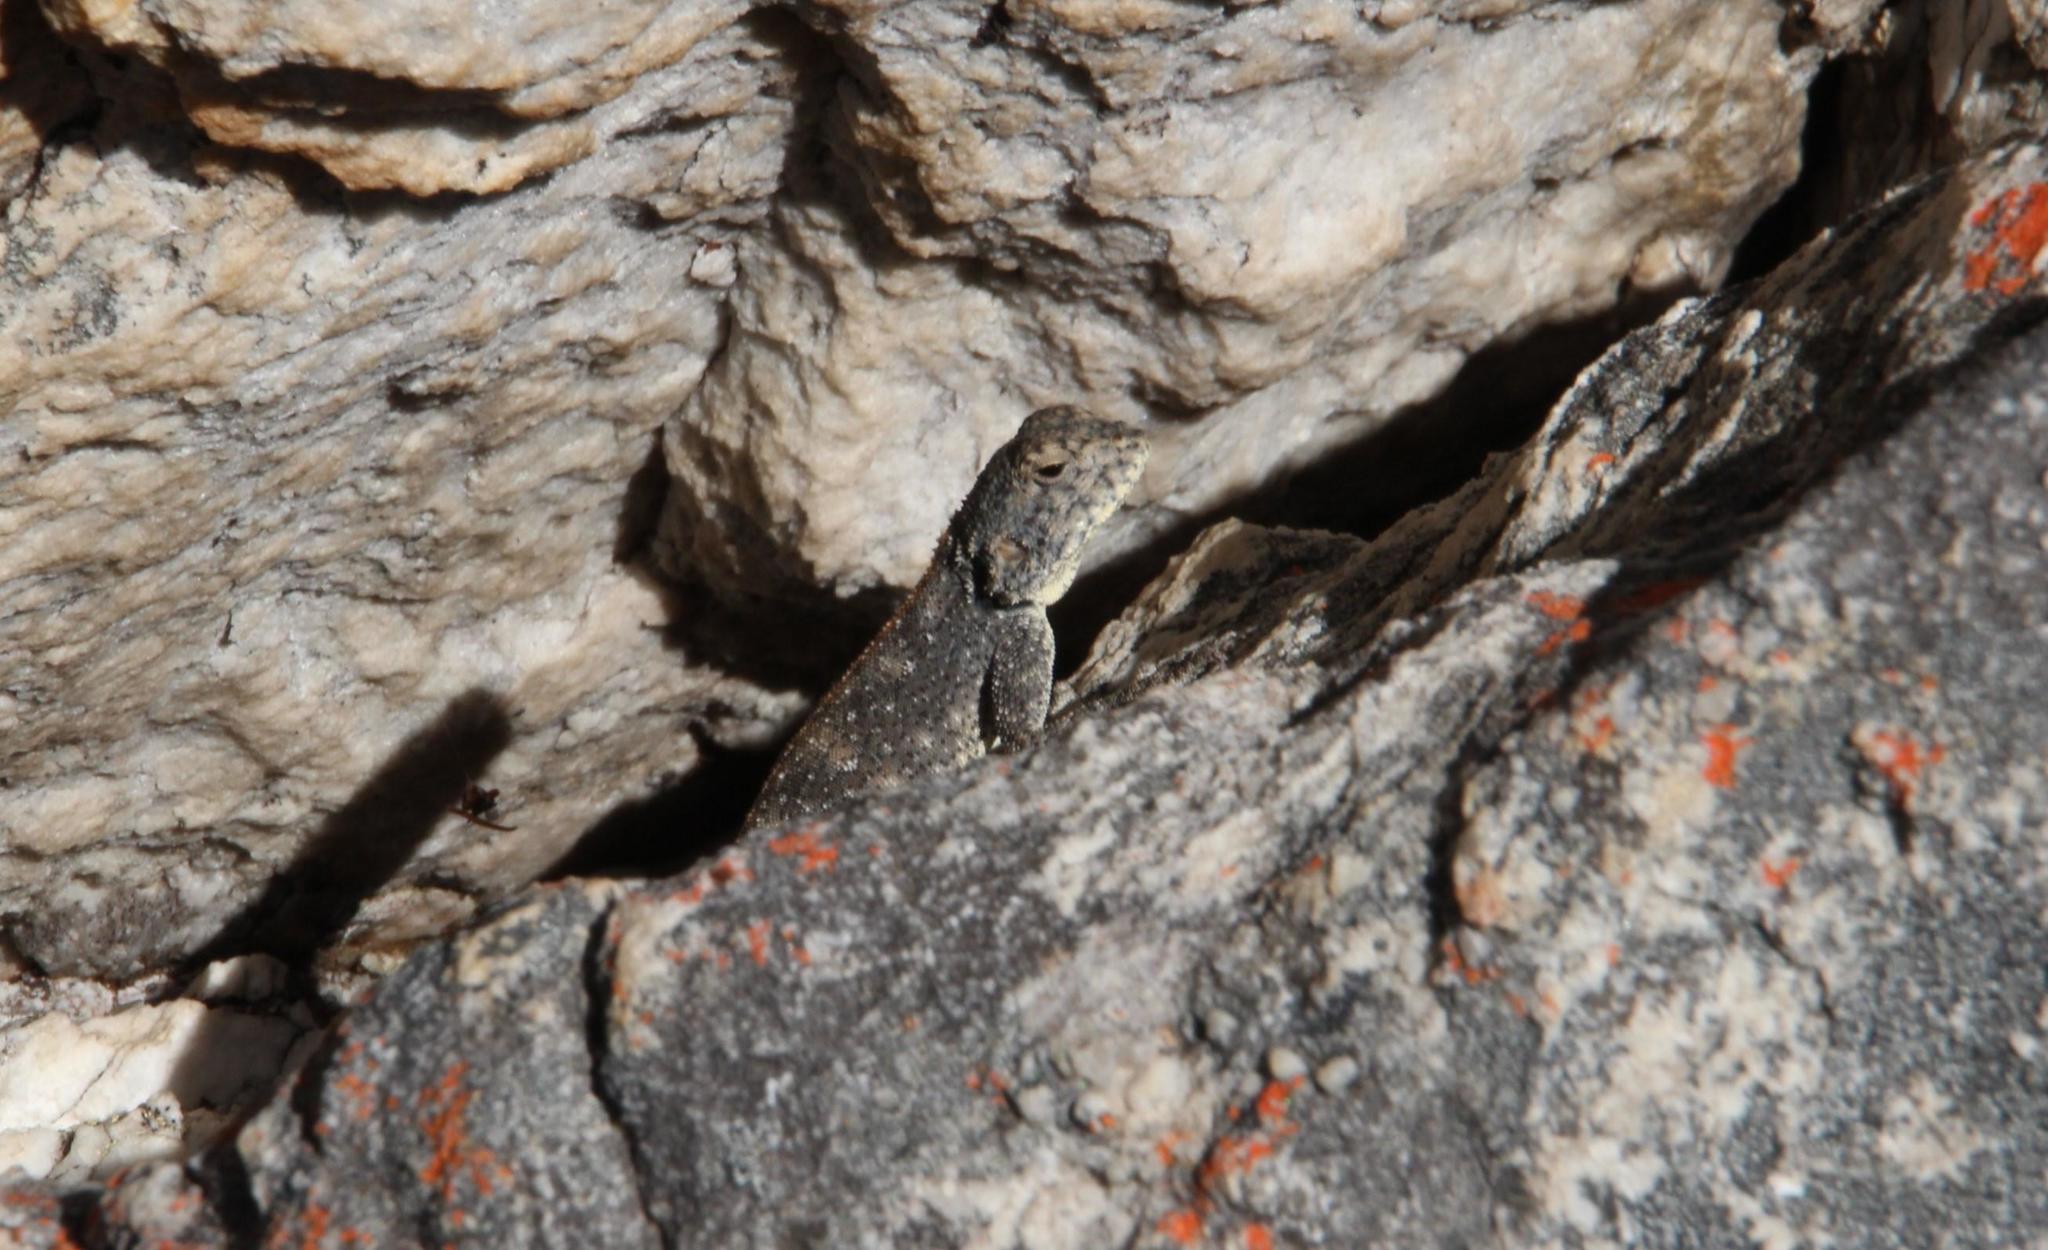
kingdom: Animalia
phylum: Chordata
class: Squamata
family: Agamidae
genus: Agama
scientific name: Agama atra
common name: Southern african rock agama
